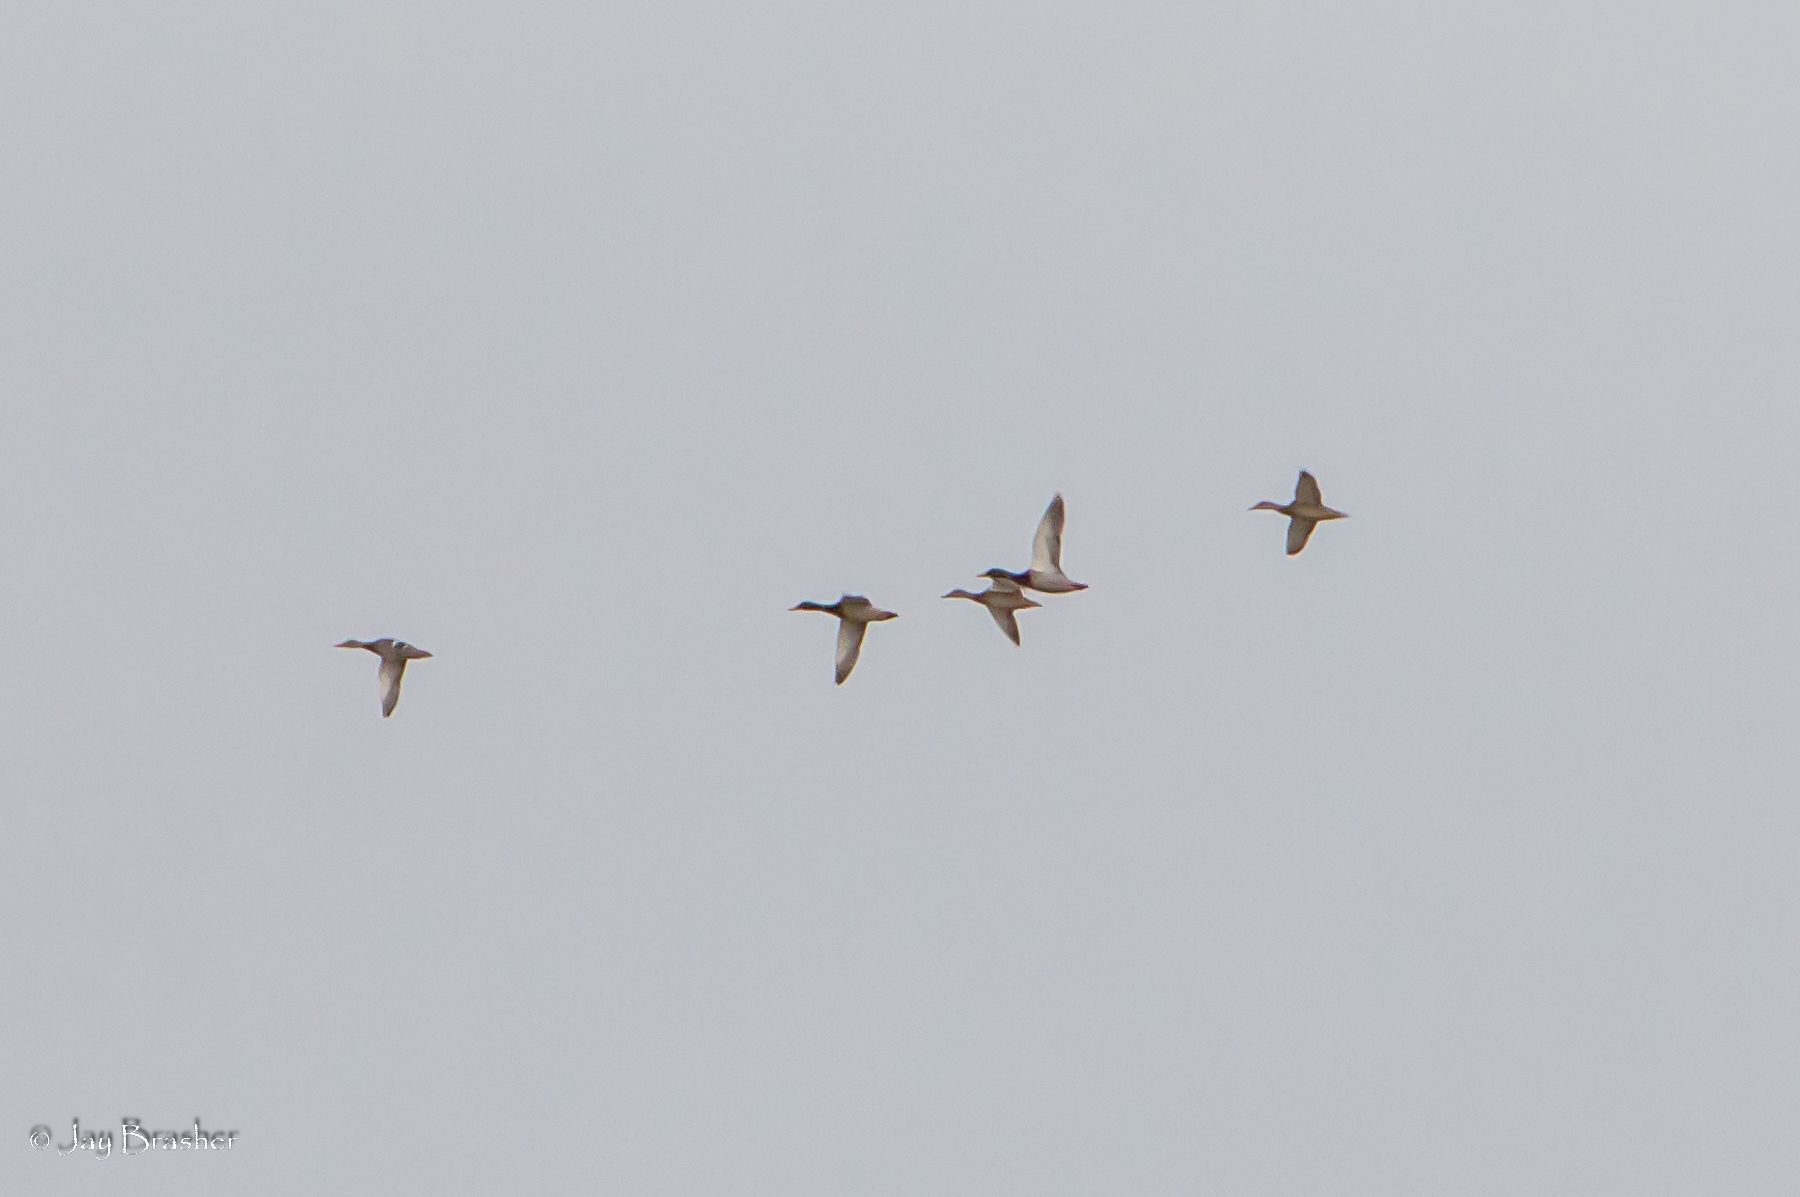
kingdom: Animalia
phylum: Chordata
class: Aves
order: Anseriformes
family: Anatidae
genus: Anas
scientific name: Anas platyrhynchos
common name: Mallard
